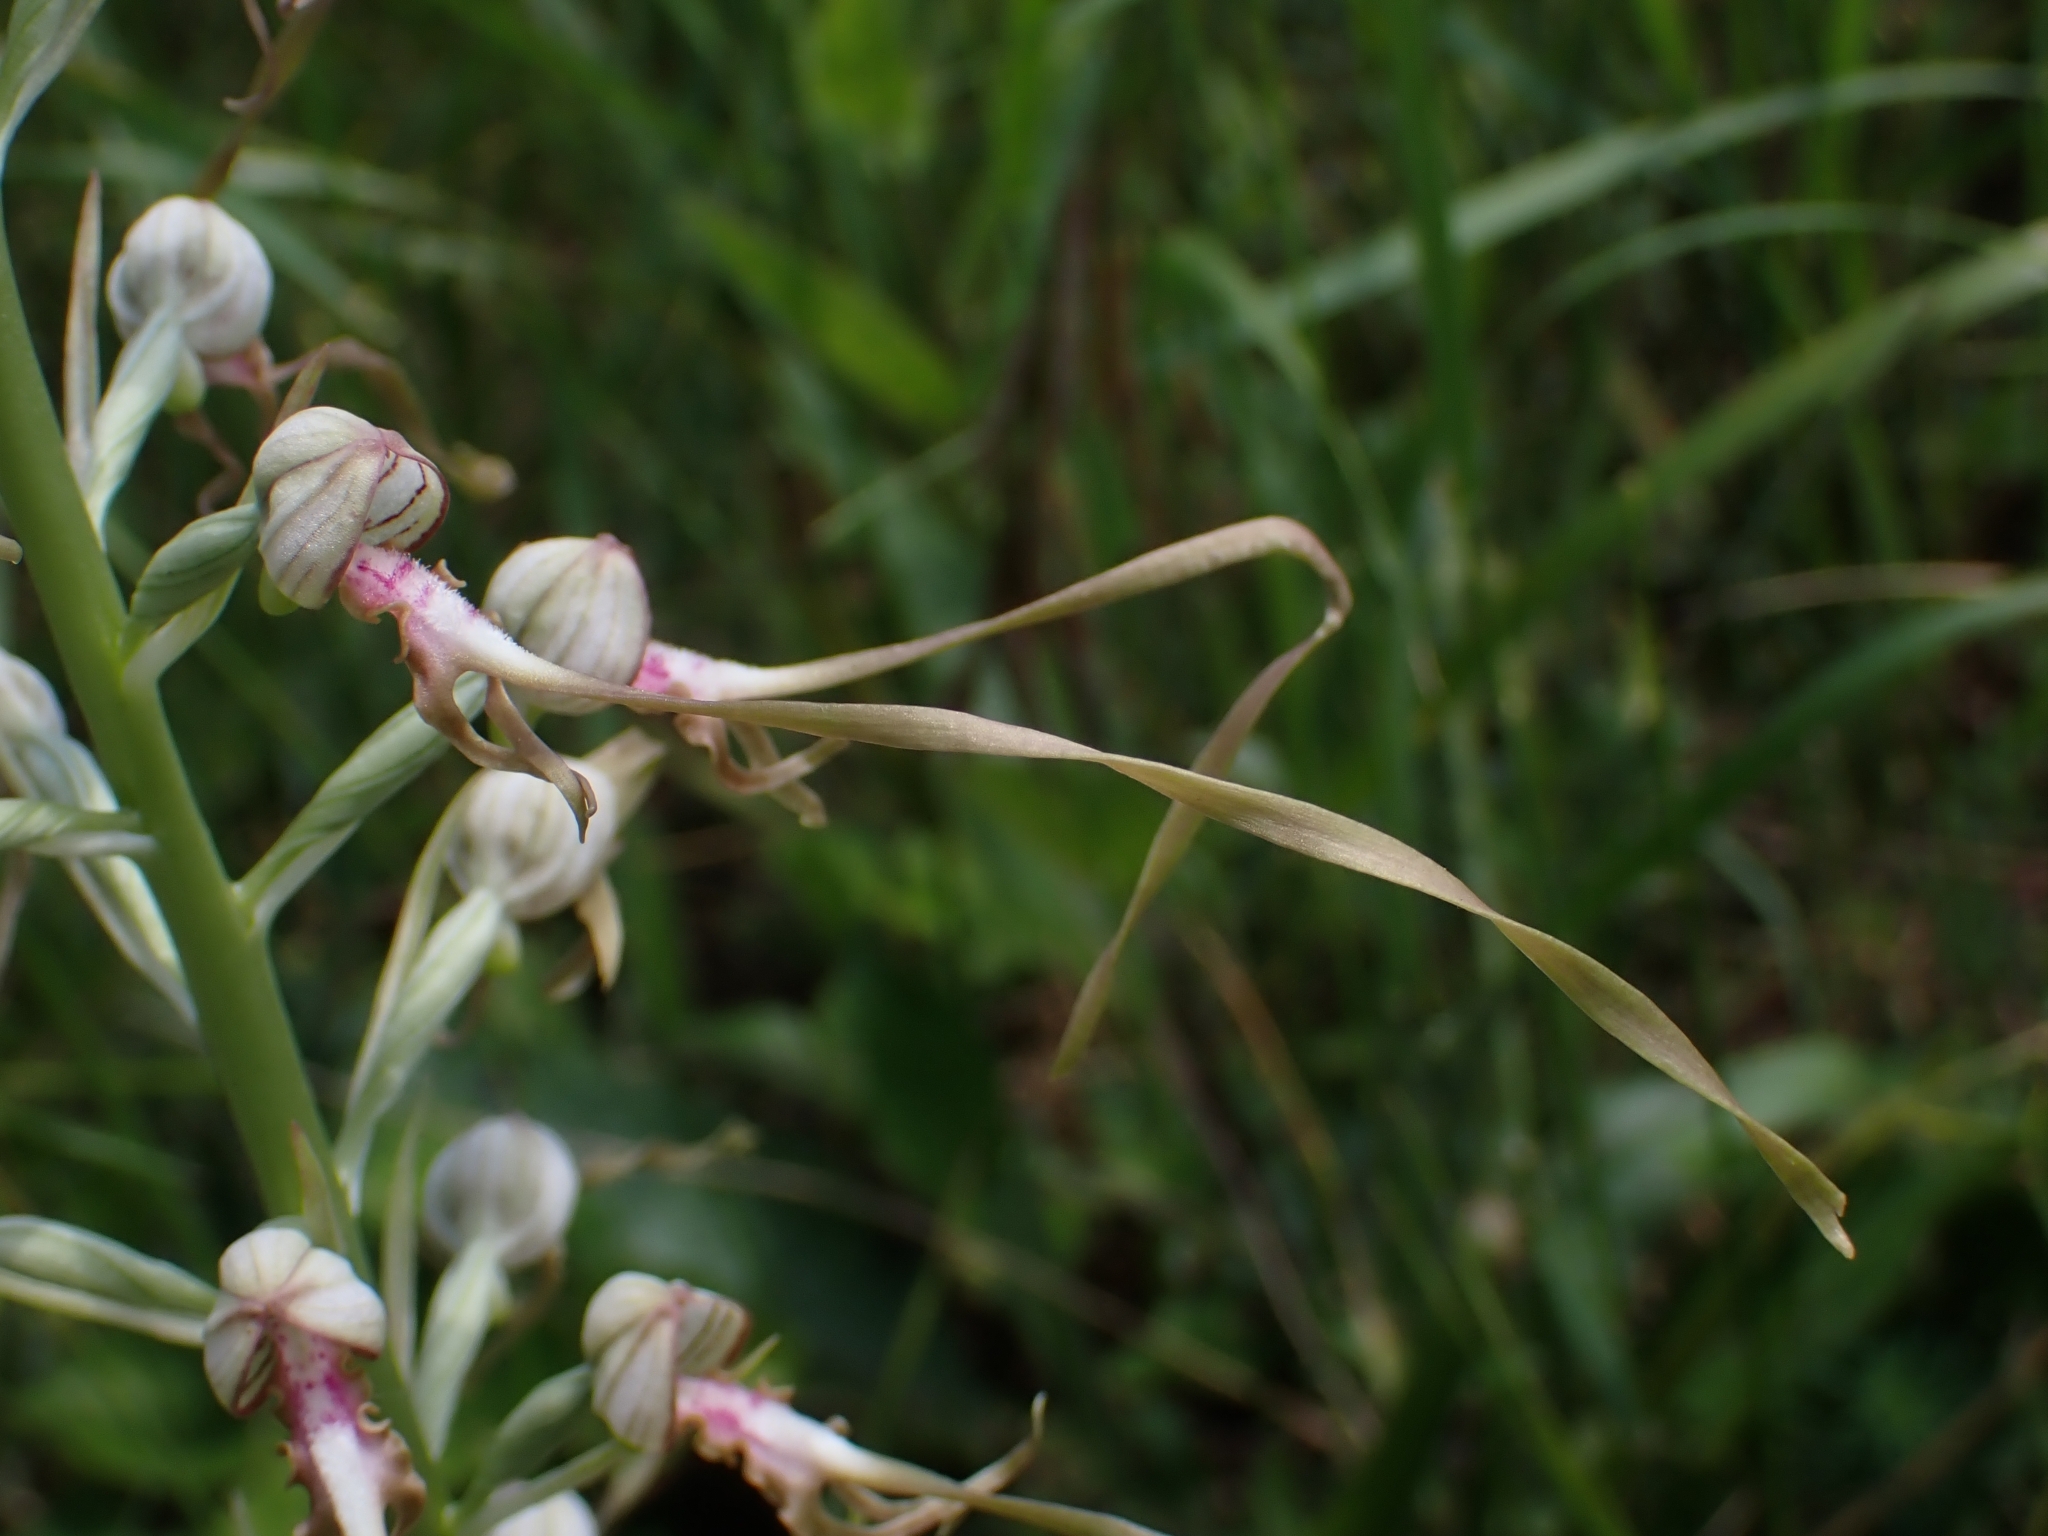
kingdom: Plantae
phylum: Tracheophyta
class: Liliopsida
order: Asparagales
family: Orchidaceae
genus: Himantoglossum
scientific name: Himantoglossum adriaticum
